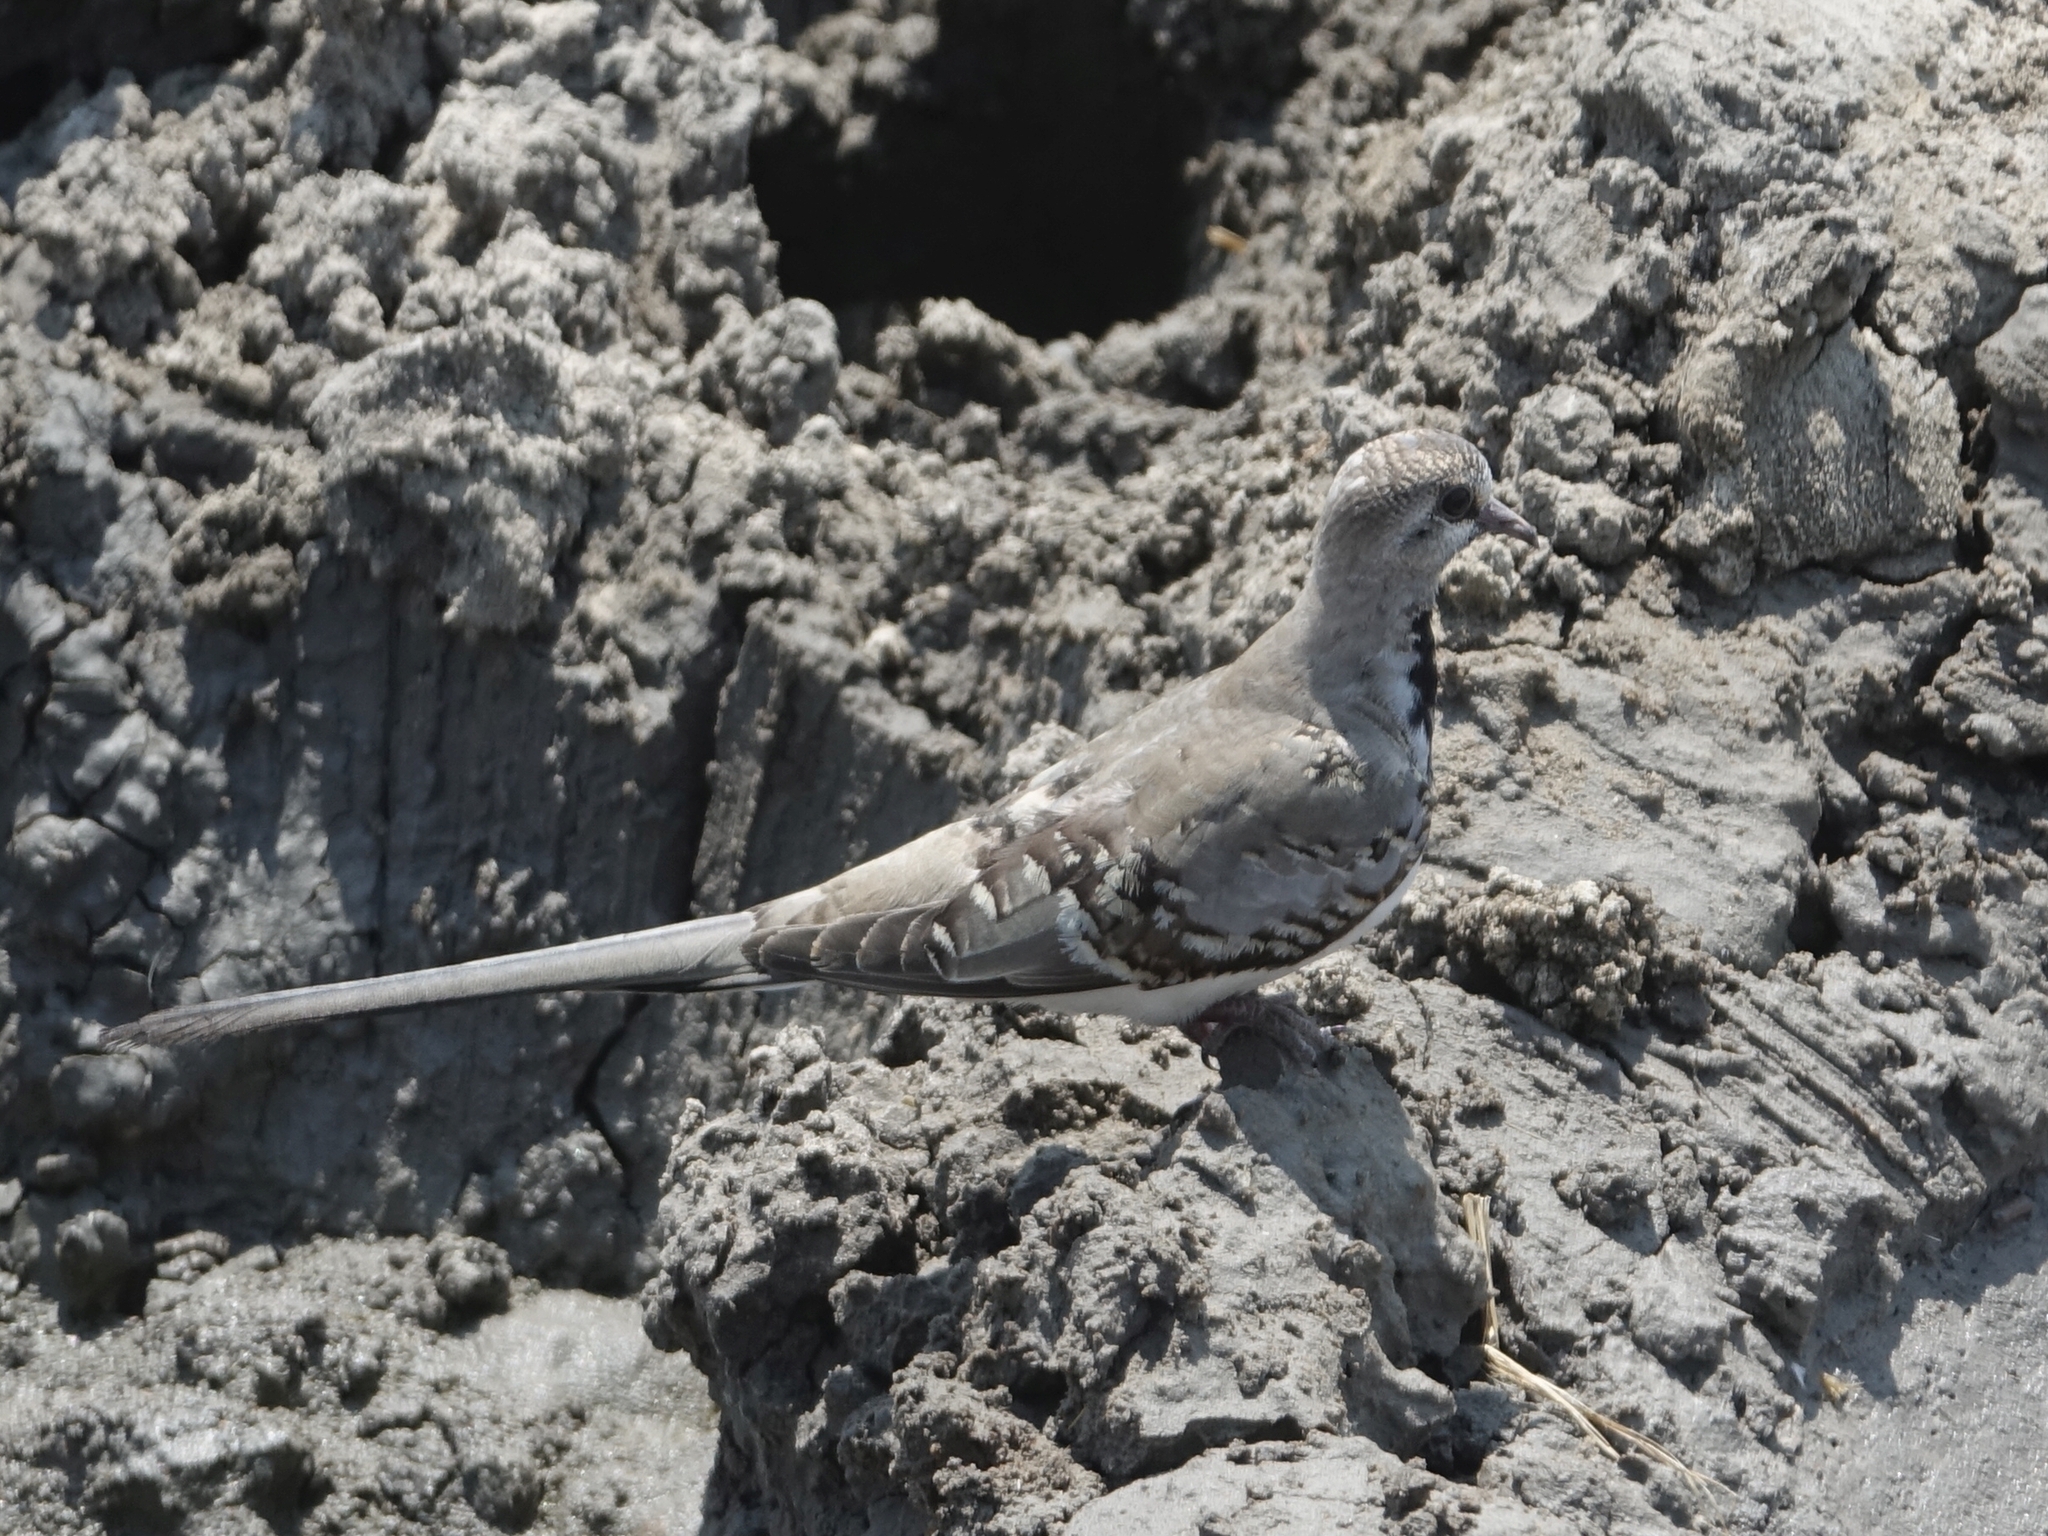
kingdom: Animalia
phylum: Chordata
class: Aves
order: Columbiformes
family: Columbidae
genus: Oena
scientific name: Oena capensis
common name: Namaqua dove
